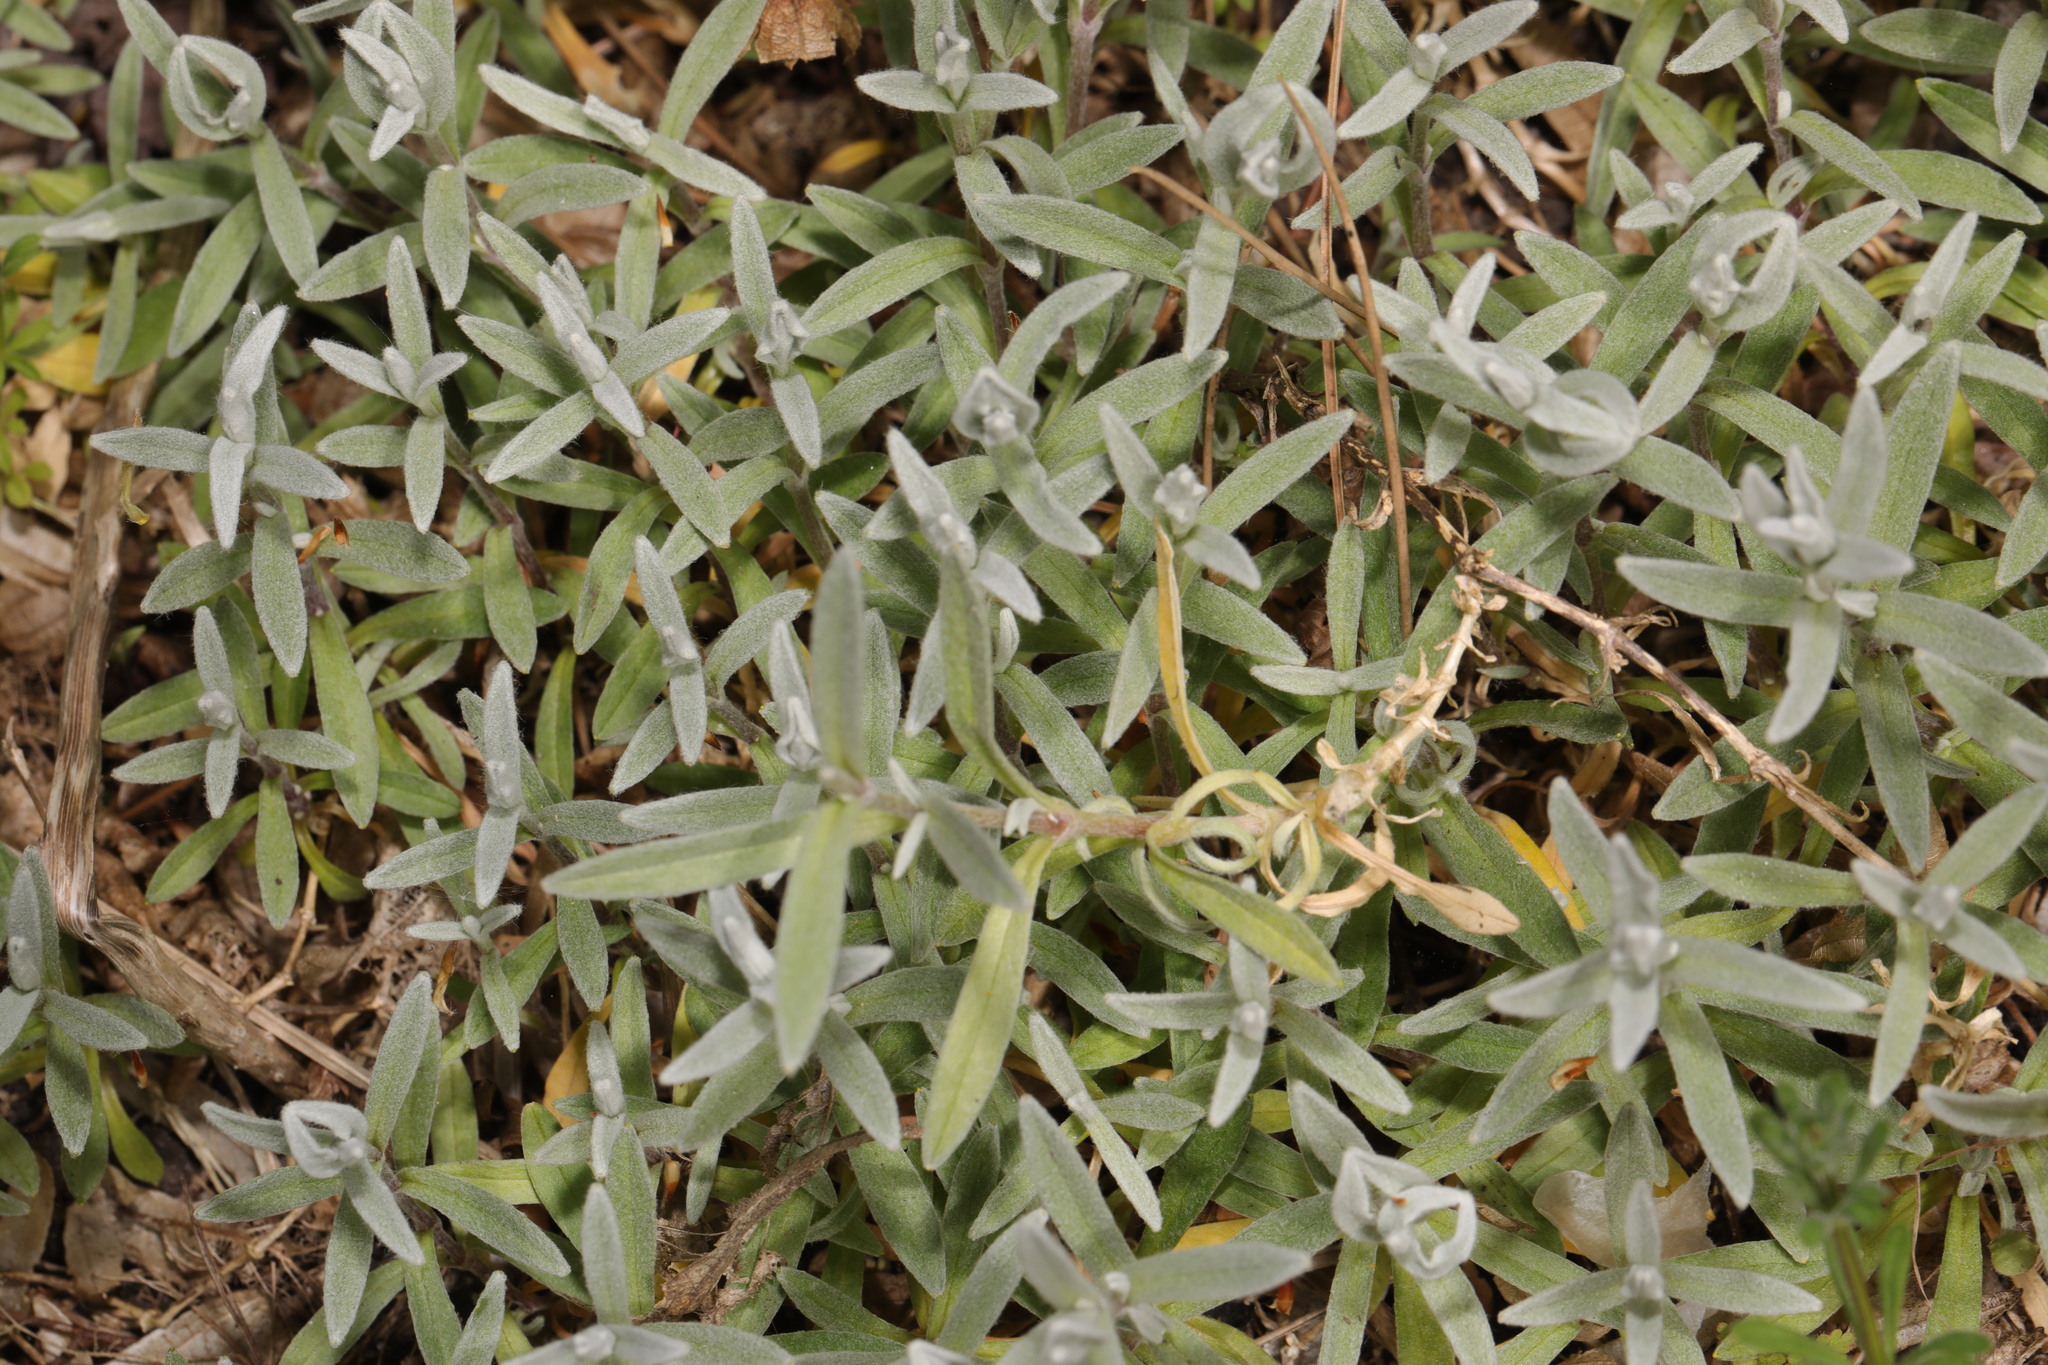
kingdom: Plantae
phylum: Tracheophyta
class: Magnoliopsida
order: Caryophyllales
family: Caryophyllaceae
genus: Cerastium
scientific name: Cerastium tomentosum
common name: Snow-in-summer
